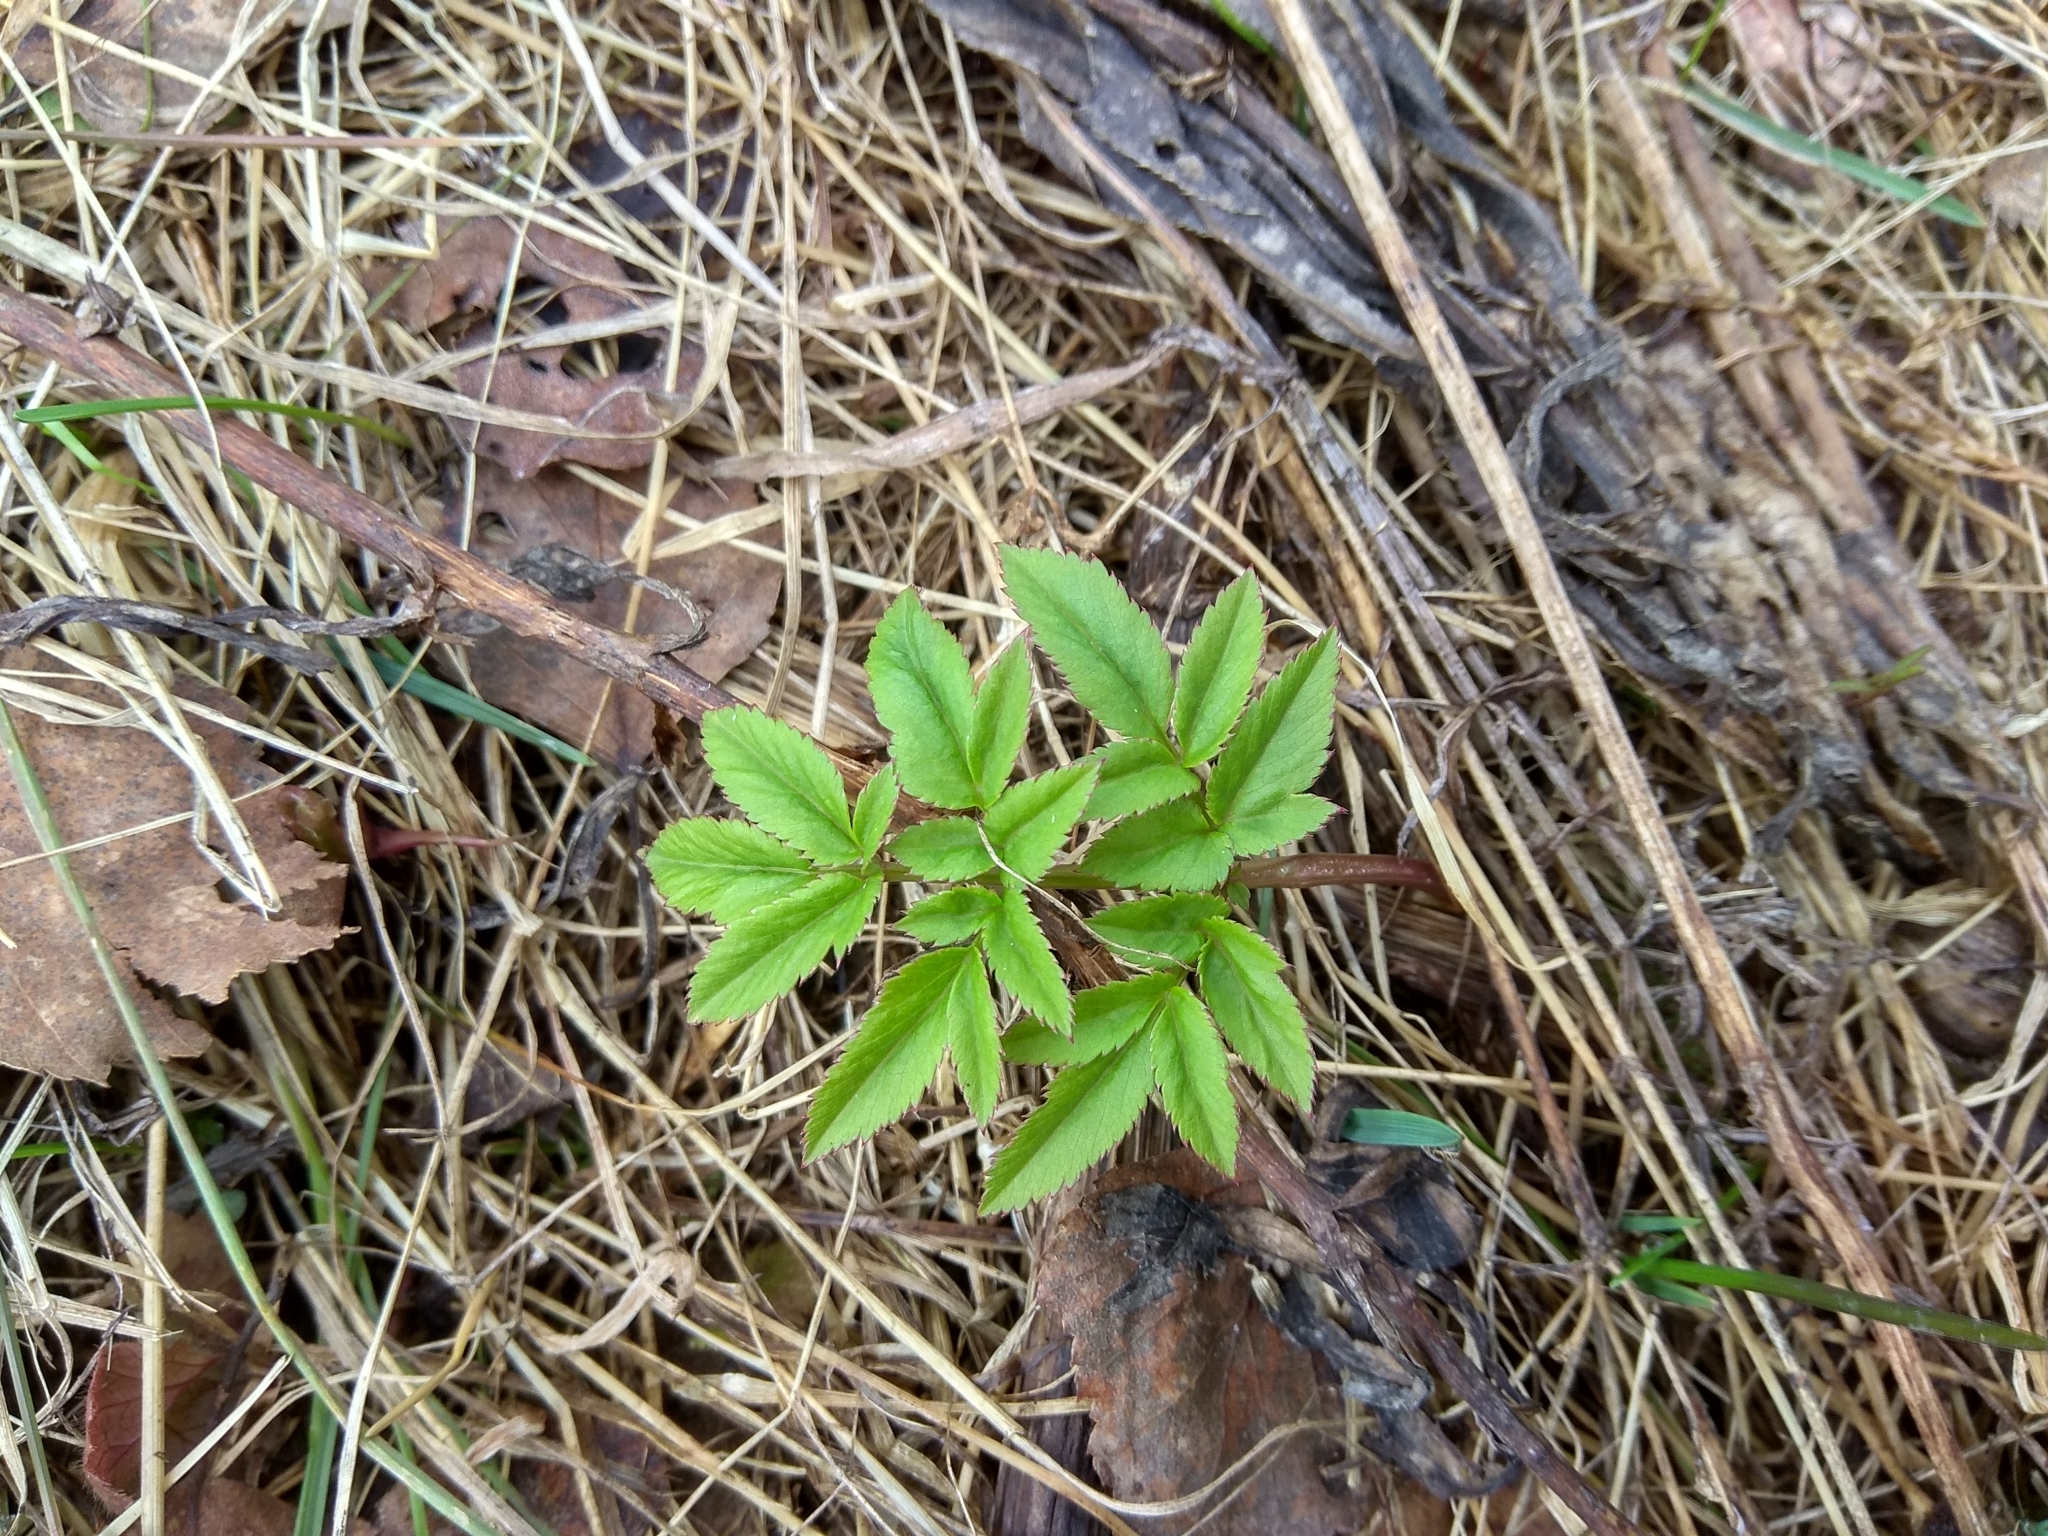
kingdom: Plantae
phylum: Tracheophyta
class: Magnoliopsida
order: Apiales
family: Apiaceae
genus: Aegopodium
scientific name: Aegopodium podagraria
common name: Ground-elder
